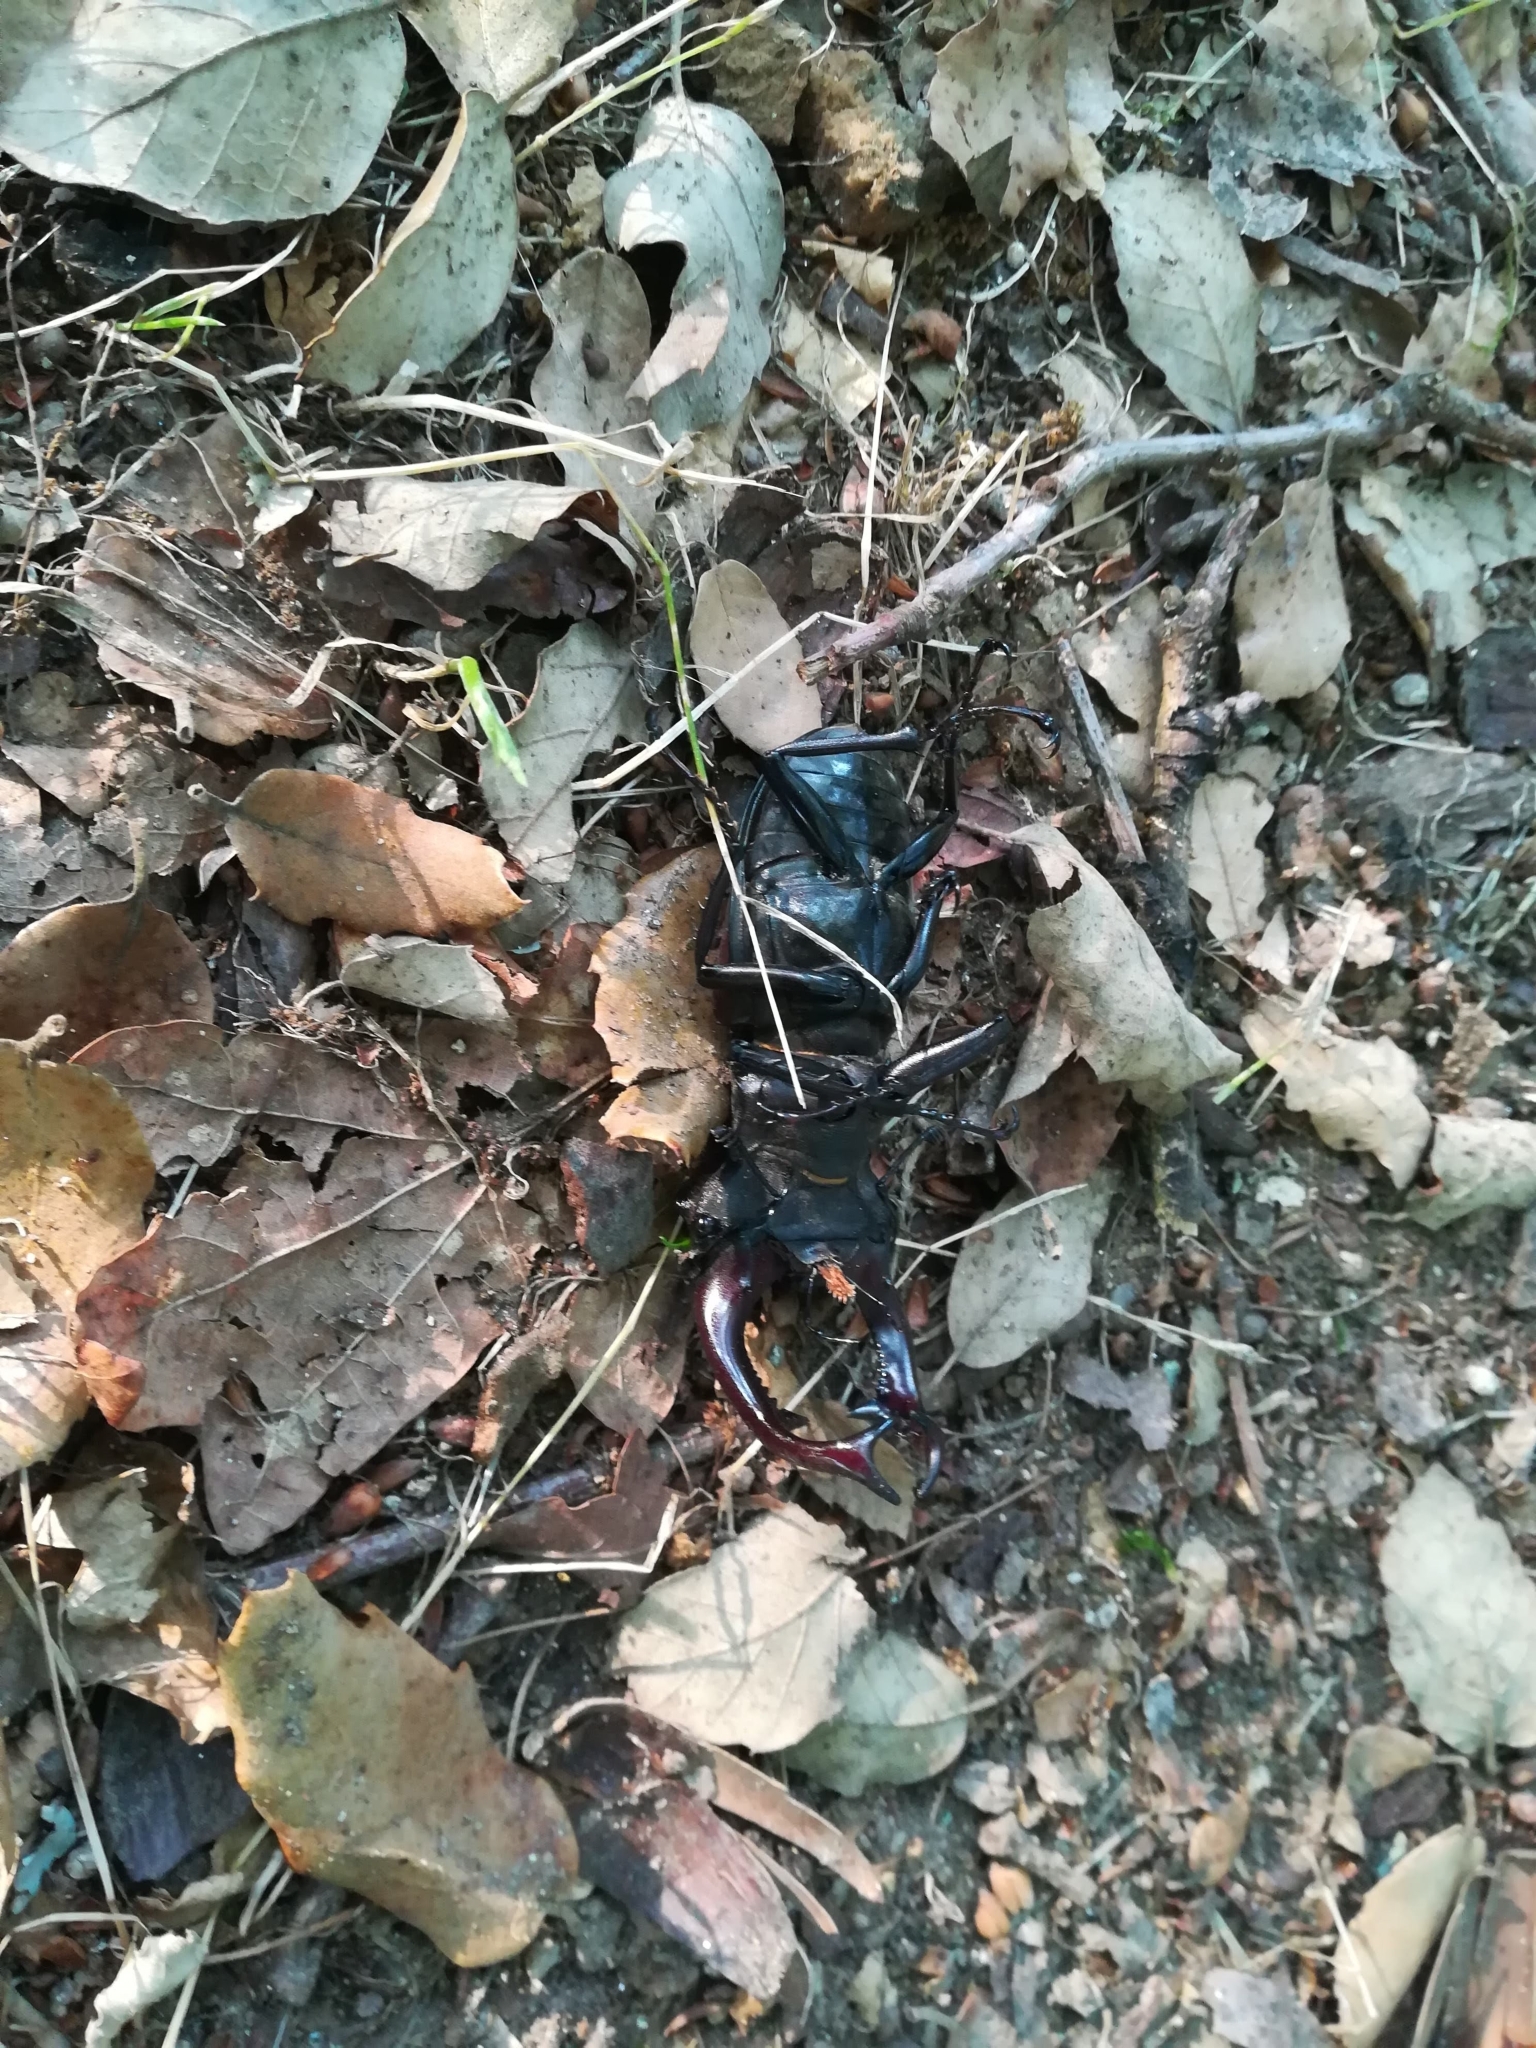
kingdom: Animalia
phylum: Arthropoda
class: Insecta
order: Coleoptera
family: Lucanidae
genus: Lucanus
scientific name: Lucanus cervus
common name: Stag beetle
